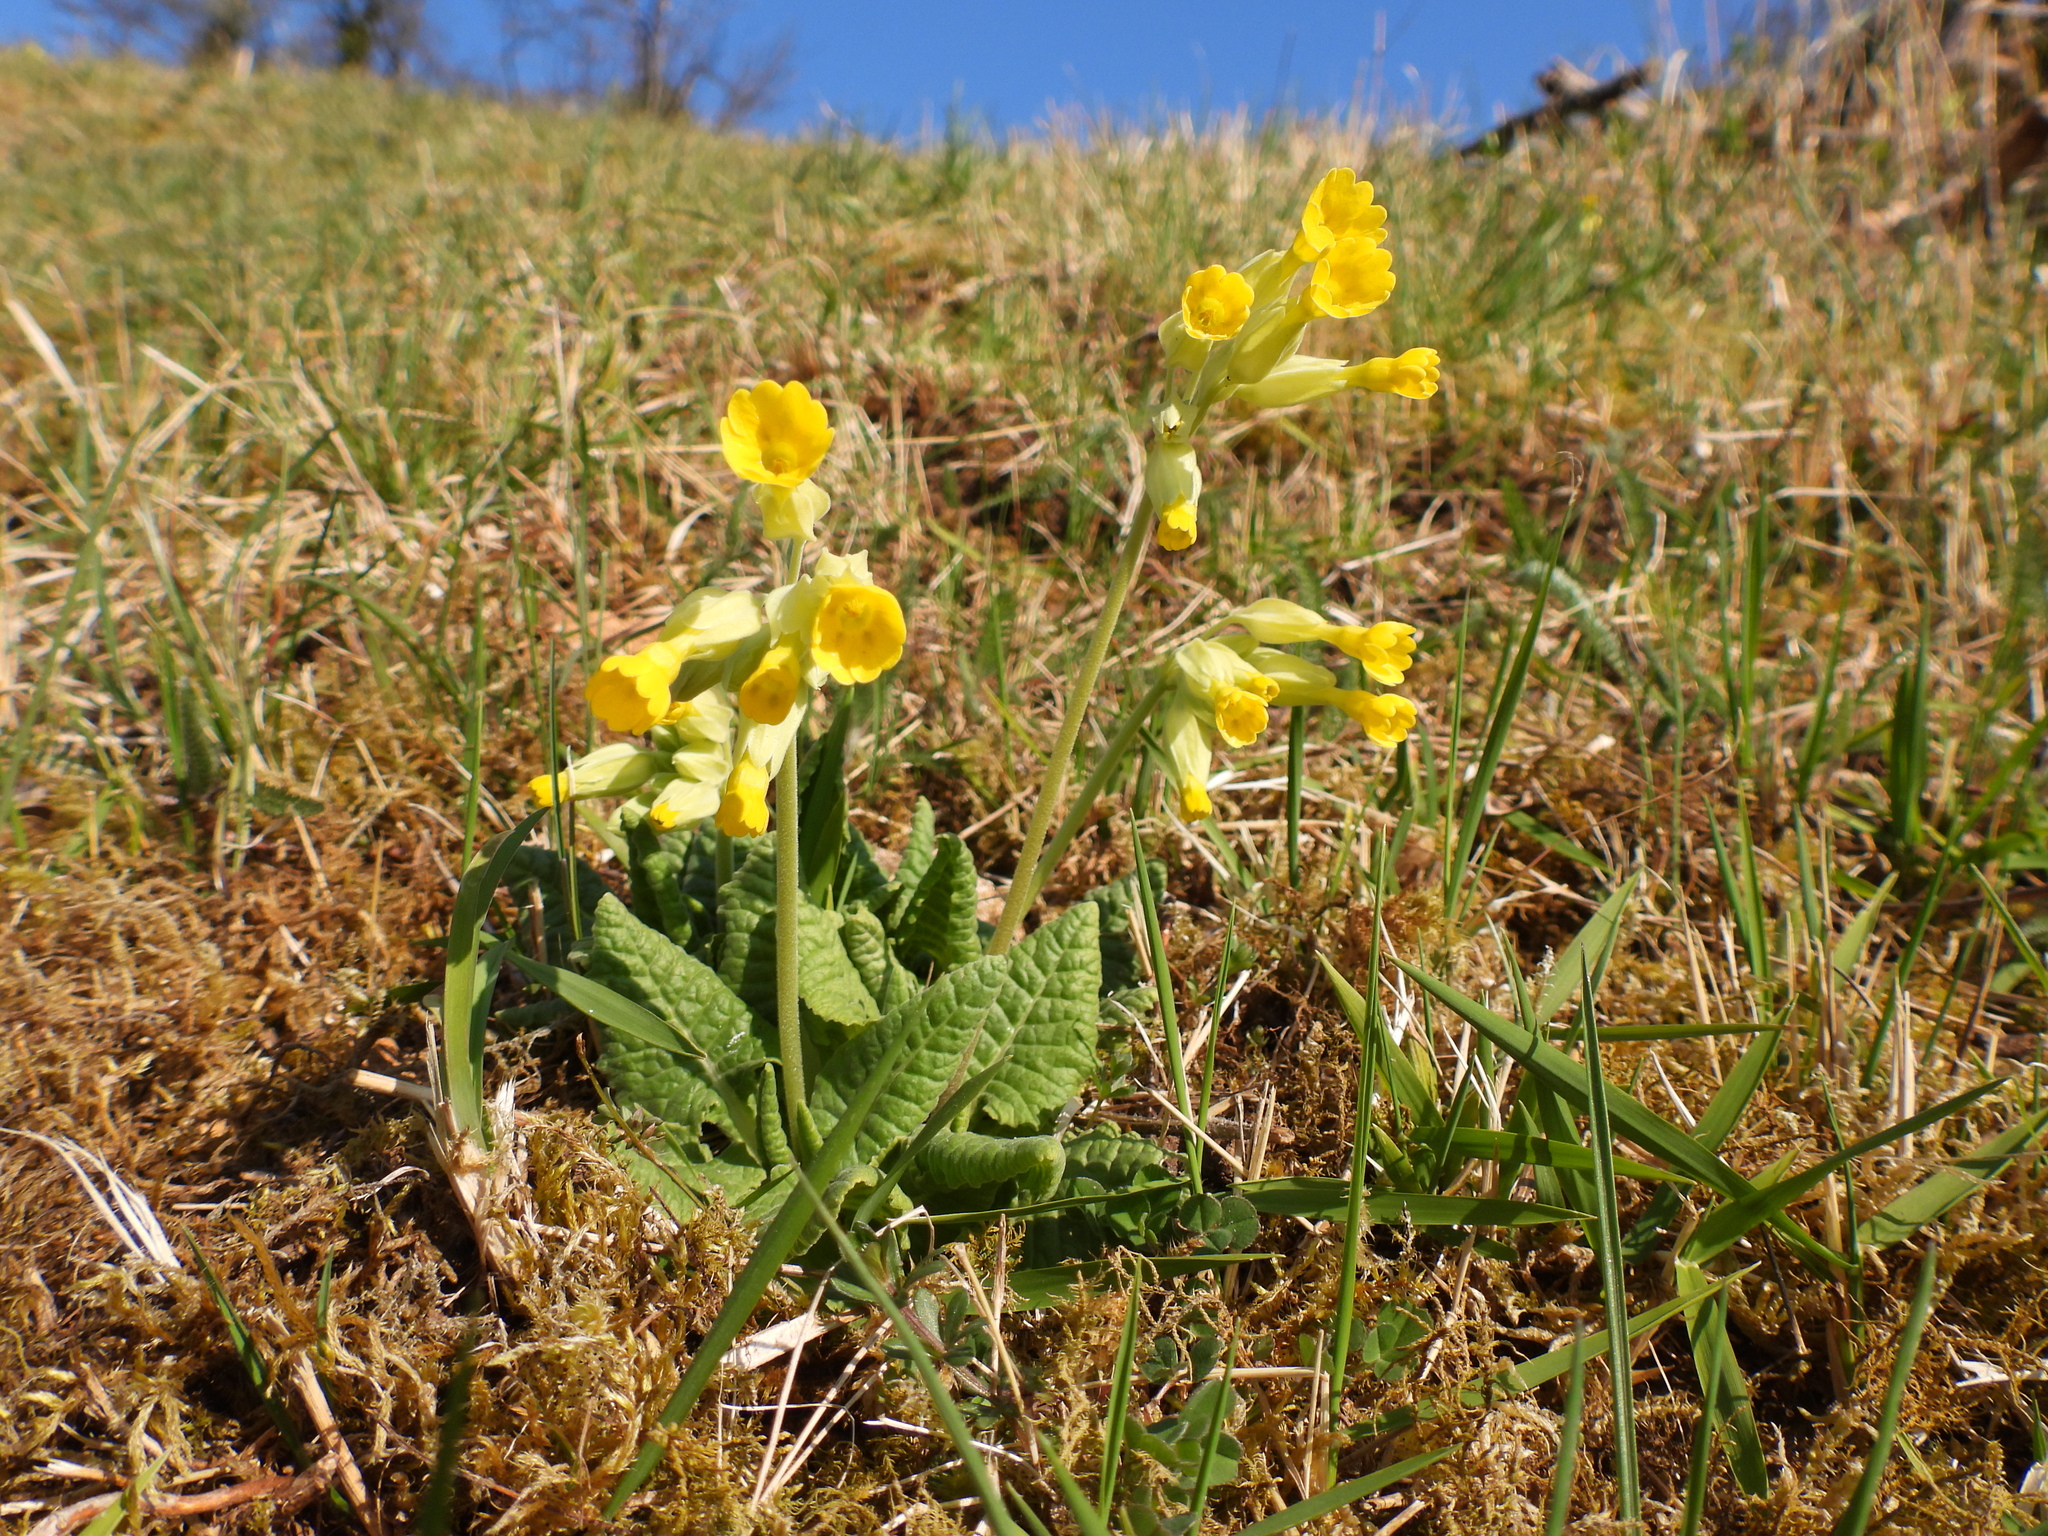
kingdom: Plantae
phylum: Tracheophyta
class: Magnoliopsida
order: Ericales
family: Primulaceae
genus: Primula
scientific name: Primula veris
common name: Cowslip
